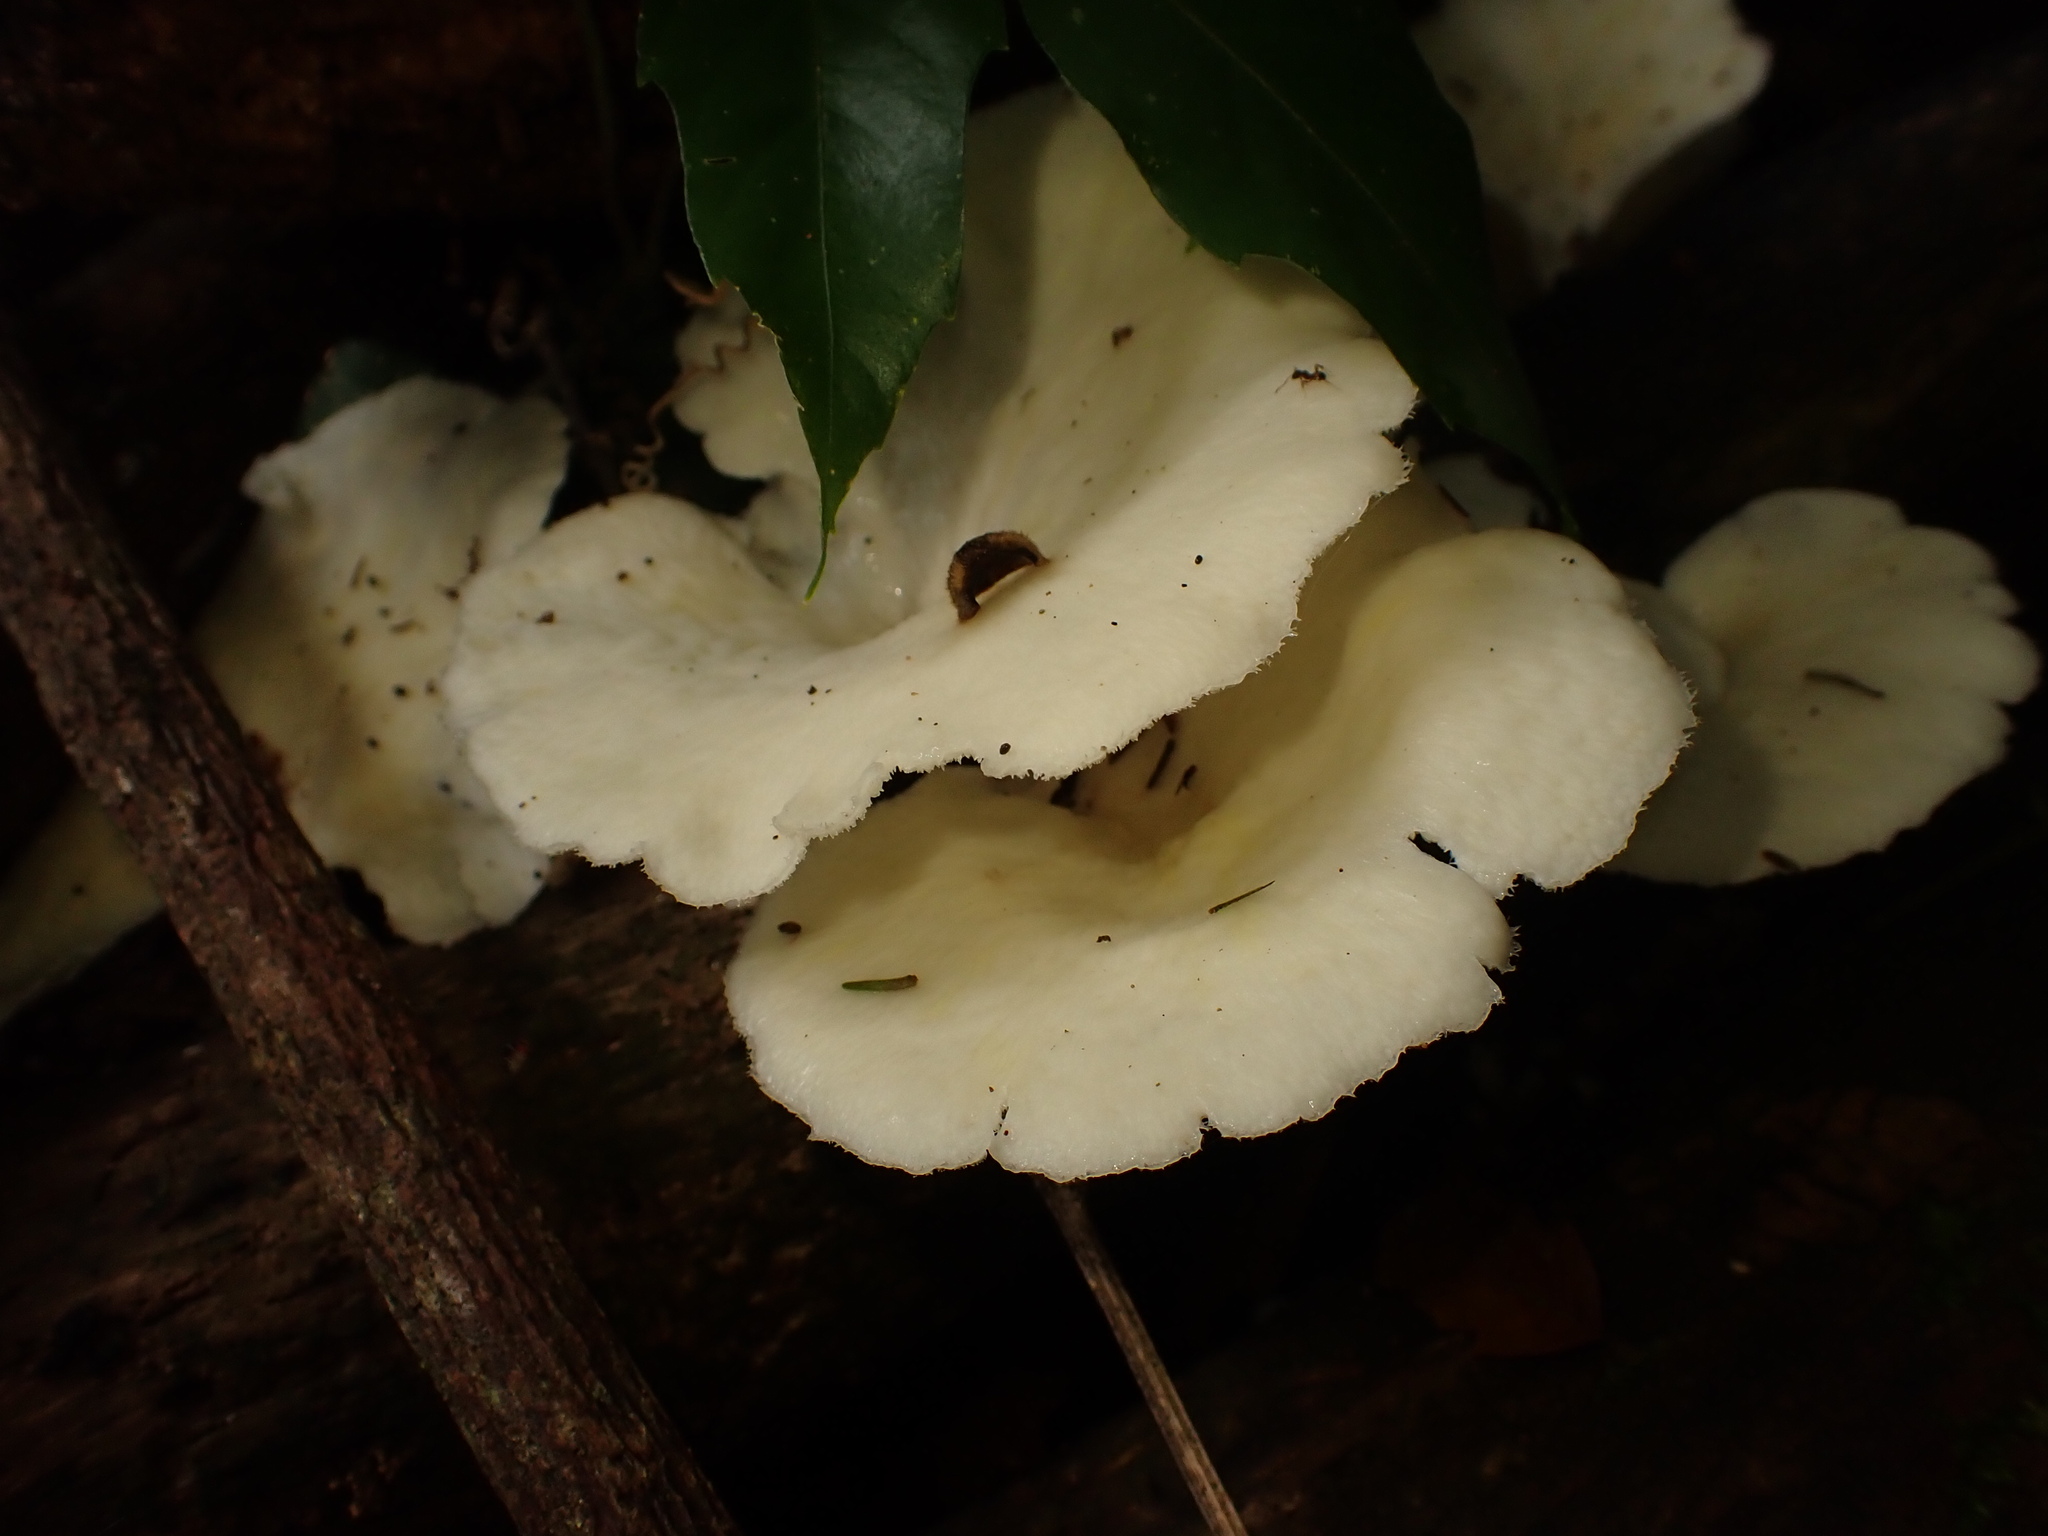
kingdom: Fungi
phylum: Basidiomycota
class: Agaricomycetes
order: Polyporales
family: Polyporaceae
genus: Favolus
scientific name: Favolus tenuiculus
